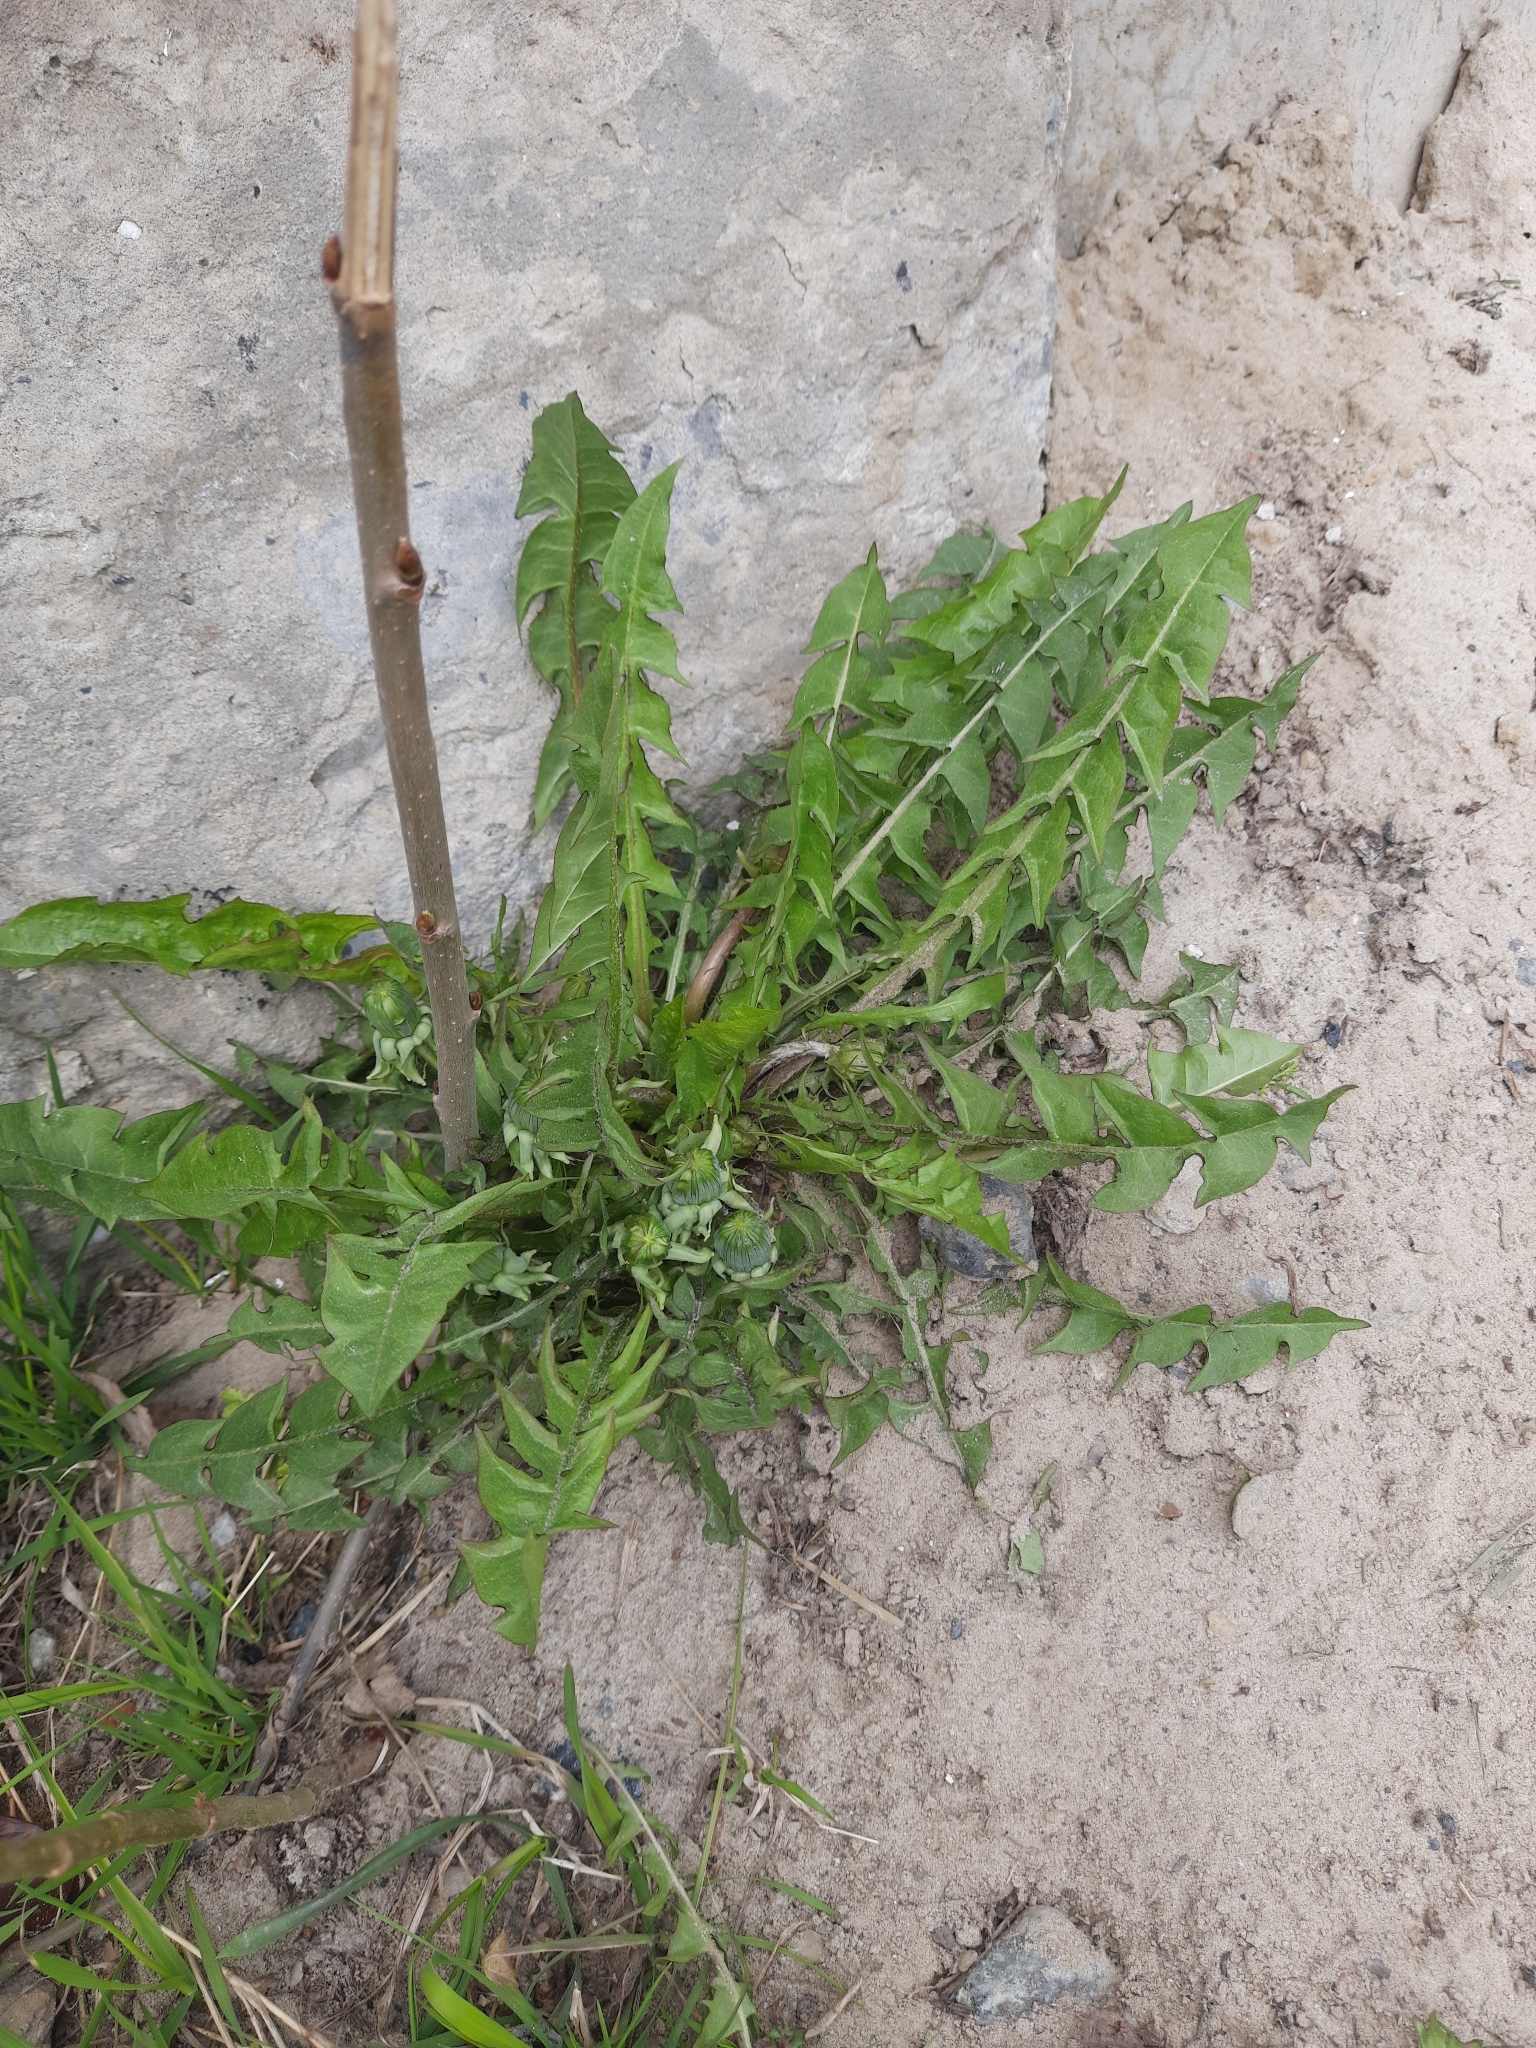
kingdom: Plantae
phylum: Tracheophyta
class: Magnoliopsida
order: Asterales
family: Asteraceae
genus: Taraxacum
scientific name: Taraxacum officinale
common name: Common dandelion
